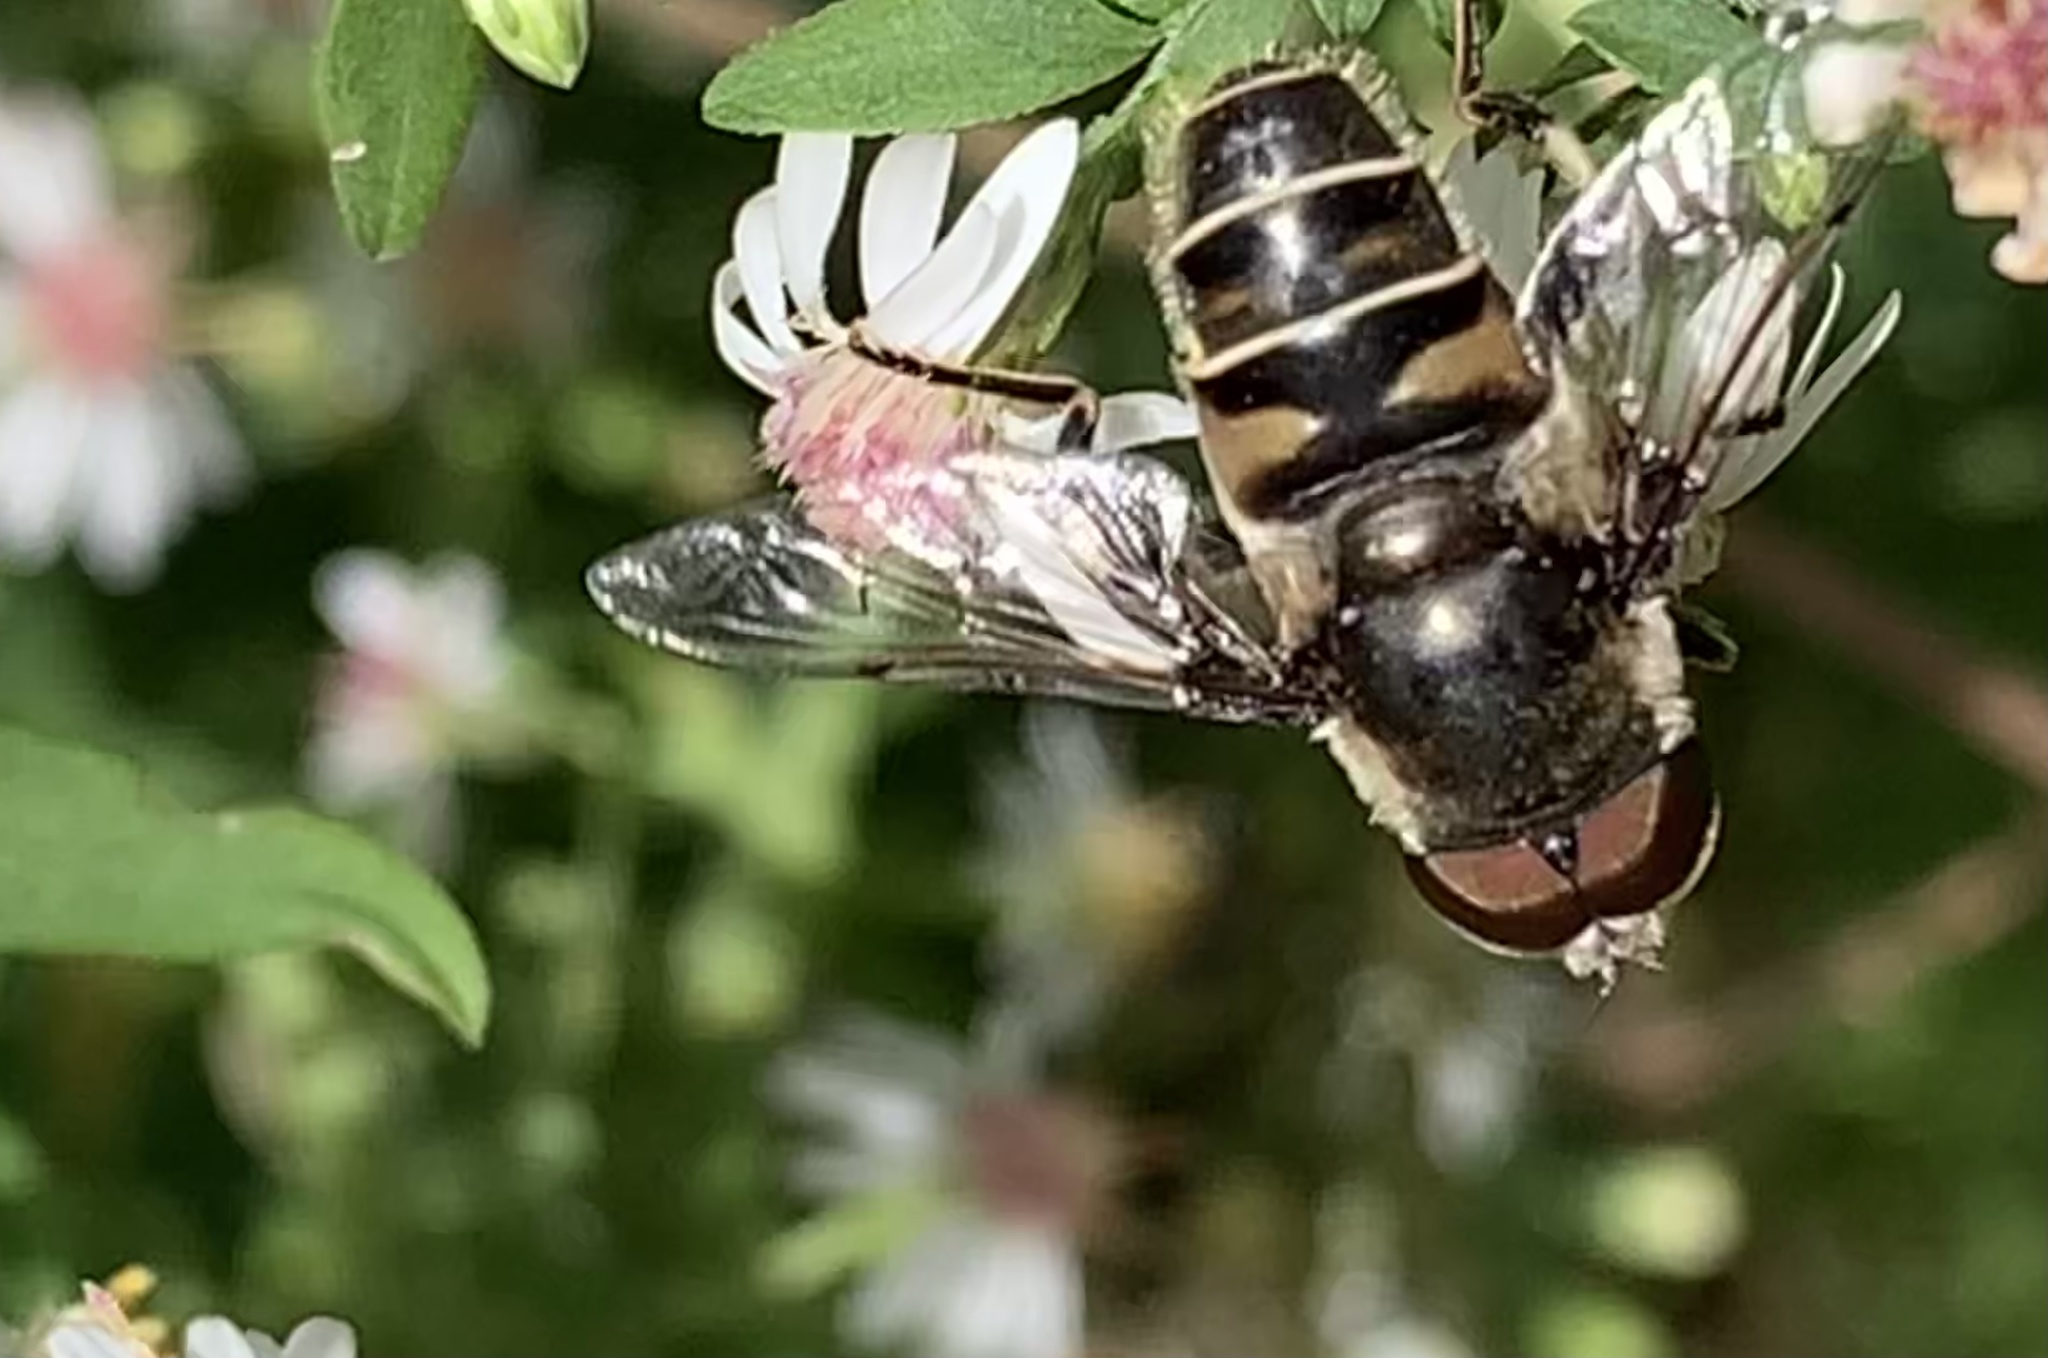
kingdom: Animalia
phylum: Arthropoda
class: Insecta
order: Diptera
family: Syrphidae
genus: Eristalis
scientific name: Eristalis dimidiata
